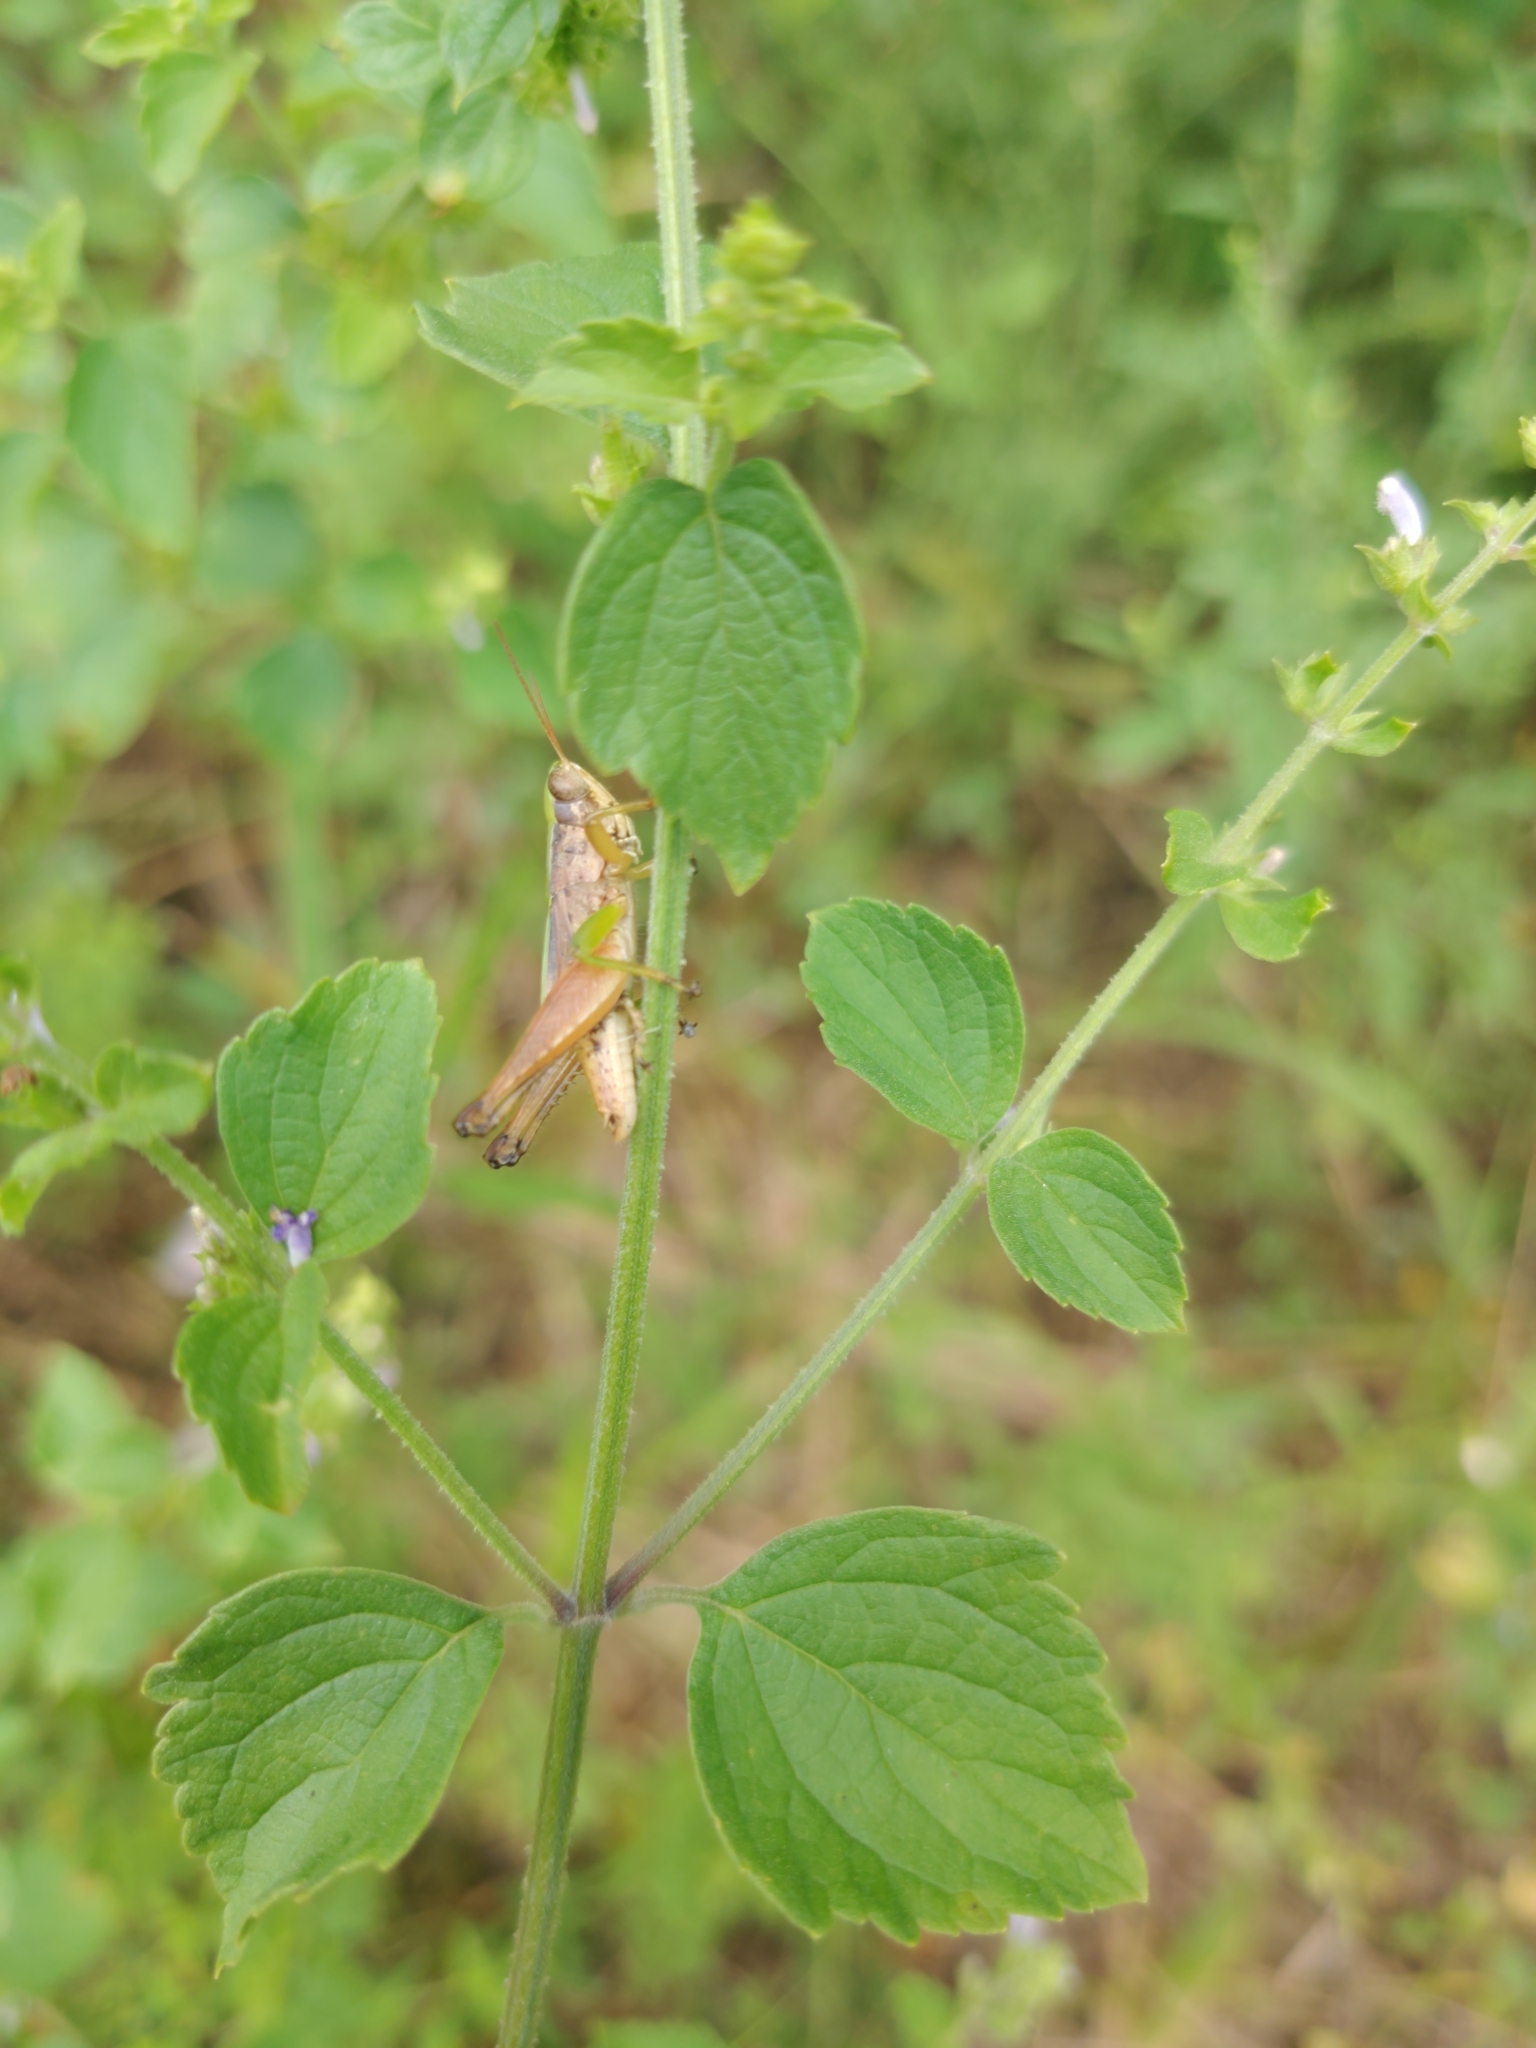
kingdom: Animalia
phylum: Arthropoda
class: Insecta
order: Orthoptera
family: Acrididae
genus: Dichromorpha
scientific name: Dichromorpha viridis
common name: Short-winged green grasshopper
